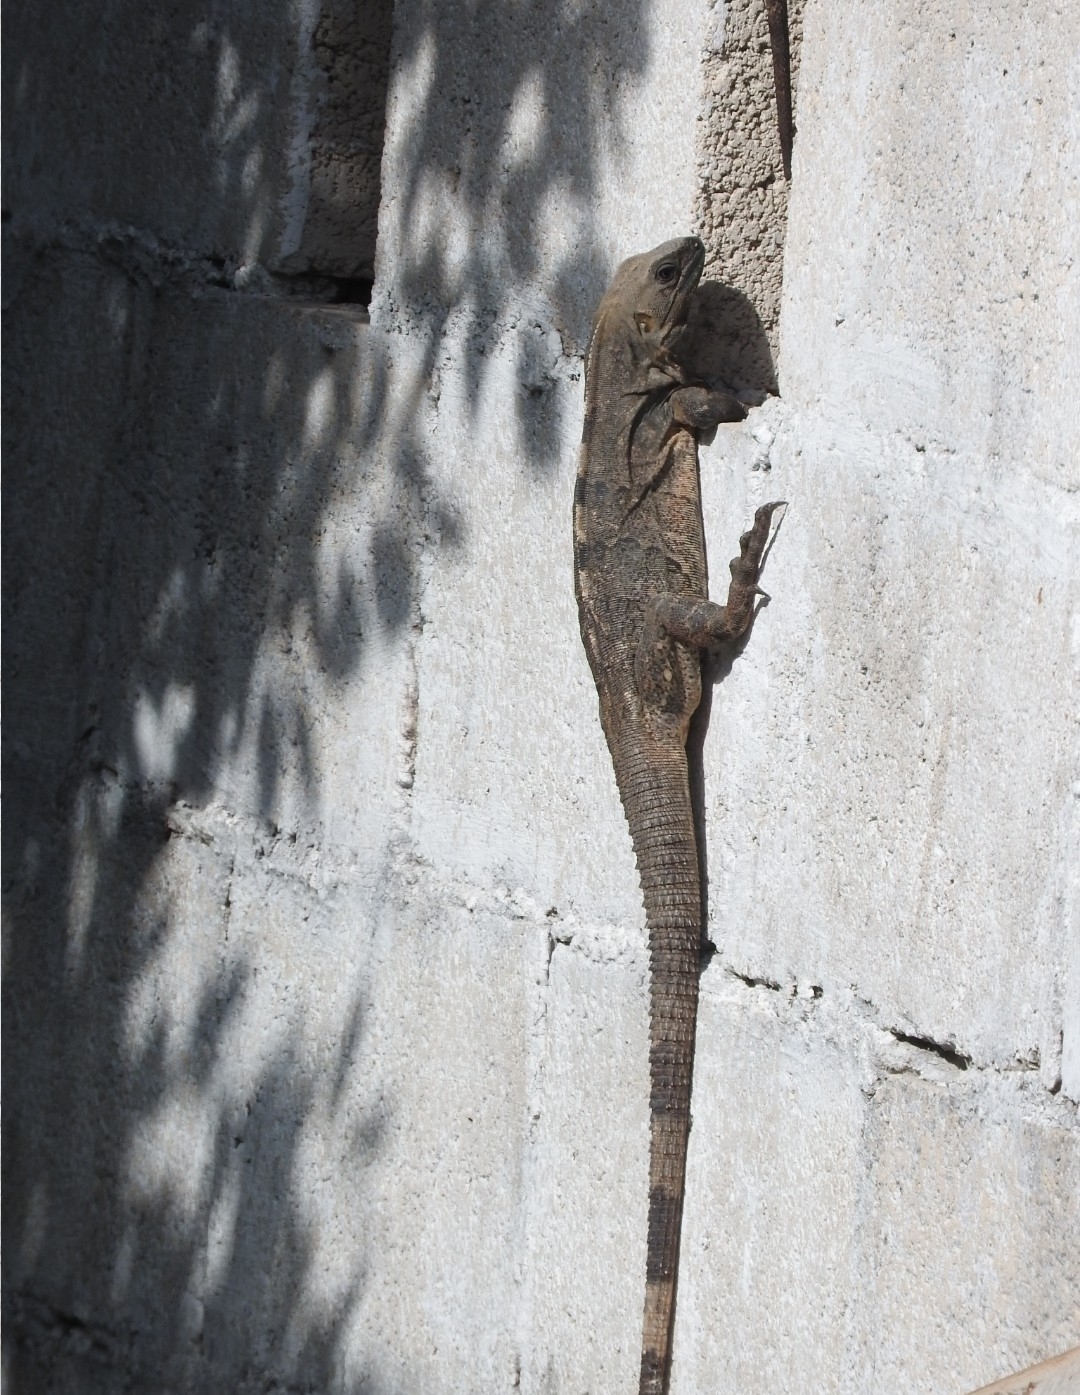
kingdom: Animalia
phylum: Chordata
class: Squamata
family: Iguanidae
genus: Ctenosaura
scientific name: Ctenosaura similis
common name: Black spiny-tailed iguana
